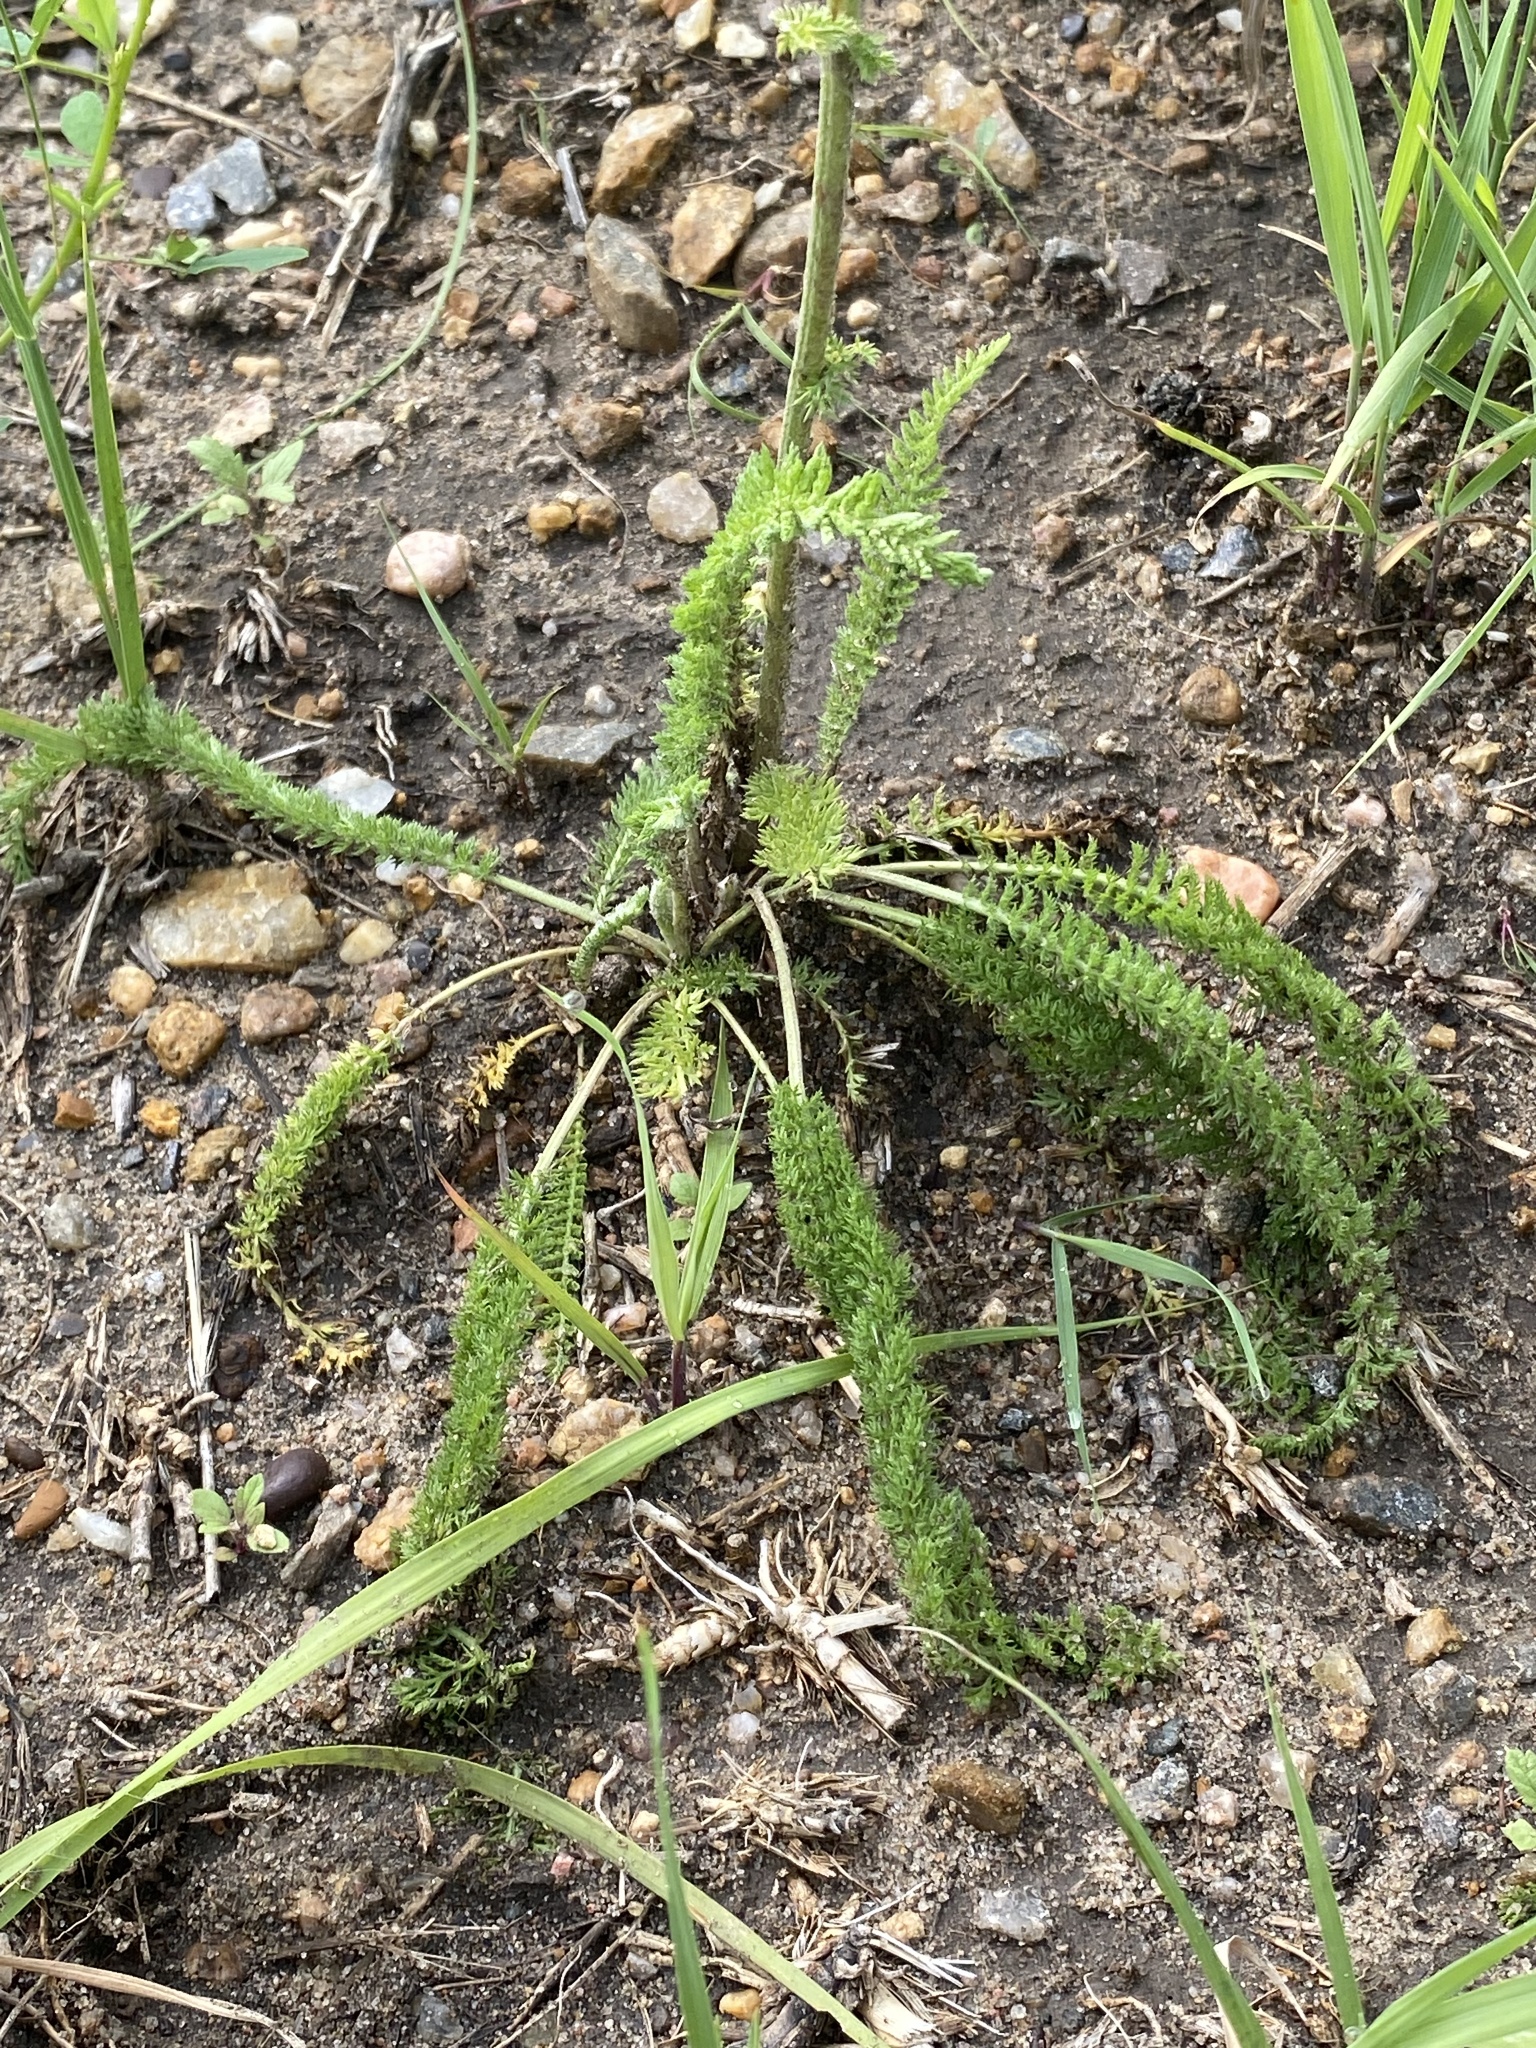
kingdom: Plantae
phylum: Tracheophyta
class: Magnoliopsida
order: Asterales
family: Asteraceae
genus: Achillea
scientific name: Achillea millefolium
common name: Yarrow
